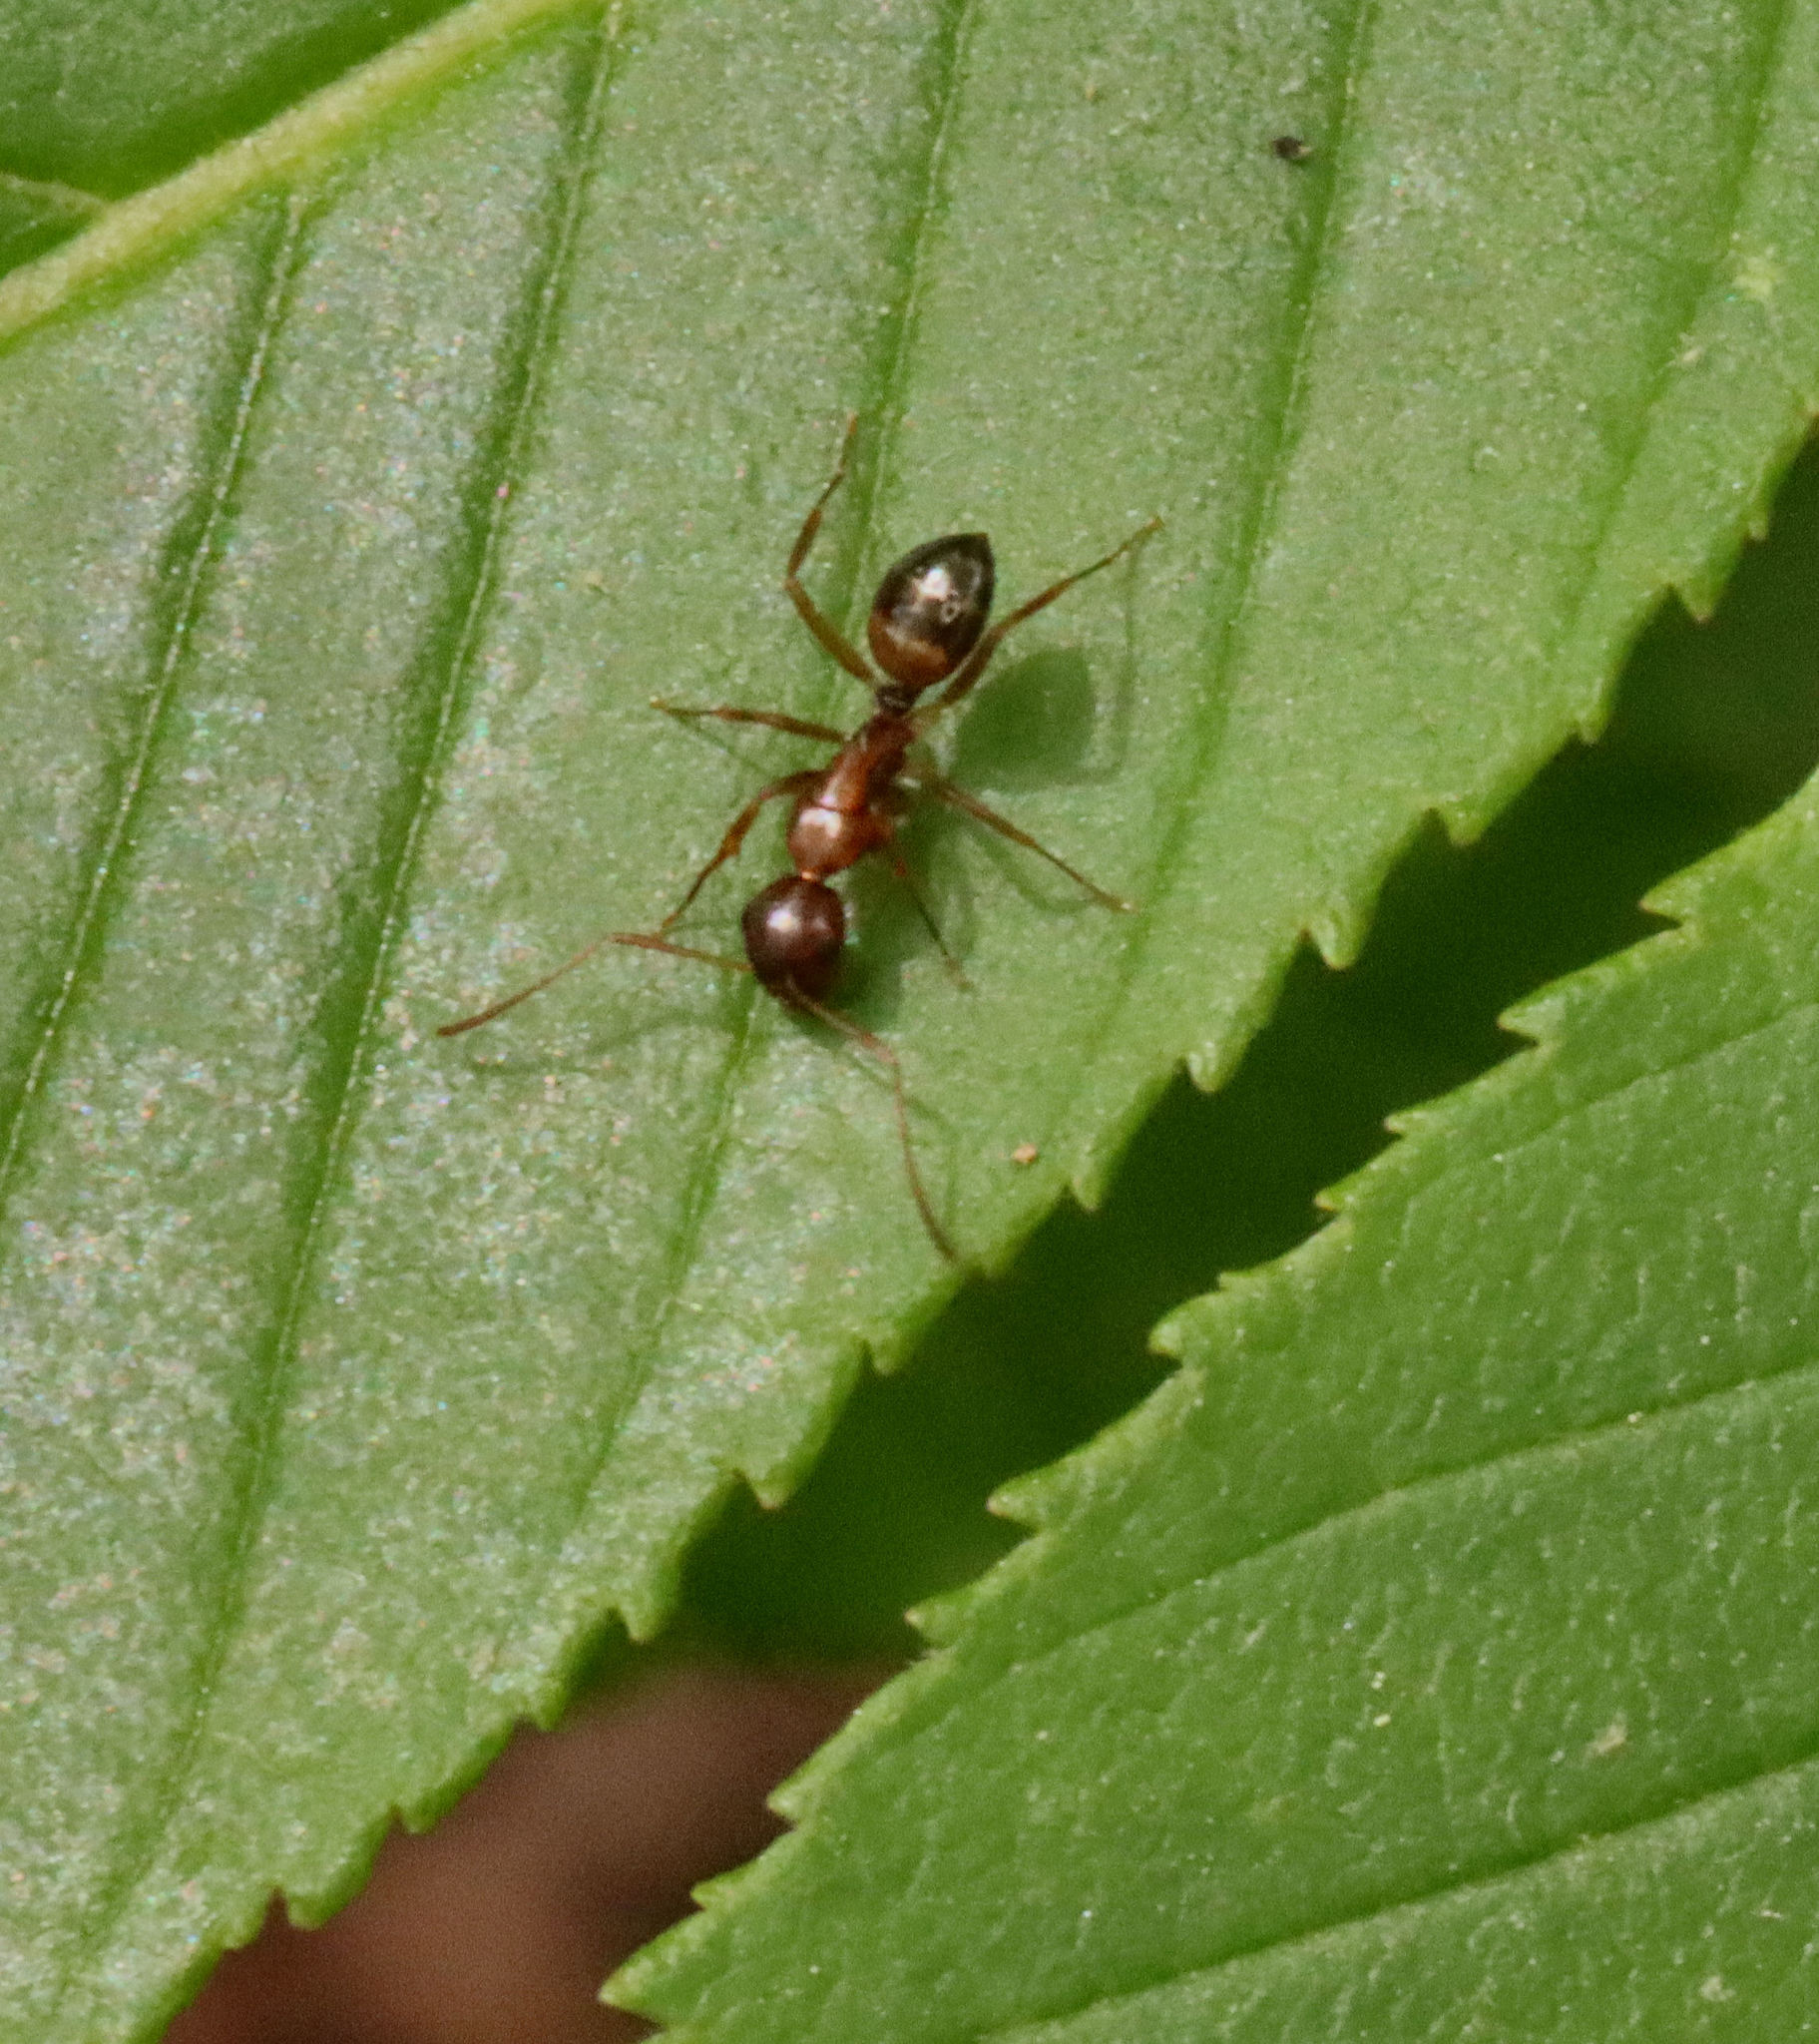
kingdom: Animalia
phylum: Arthropoda
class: Insecta
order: Hymenoptera
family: Formicidae
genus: Camponotus
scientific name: Camponotus subbarbatus
